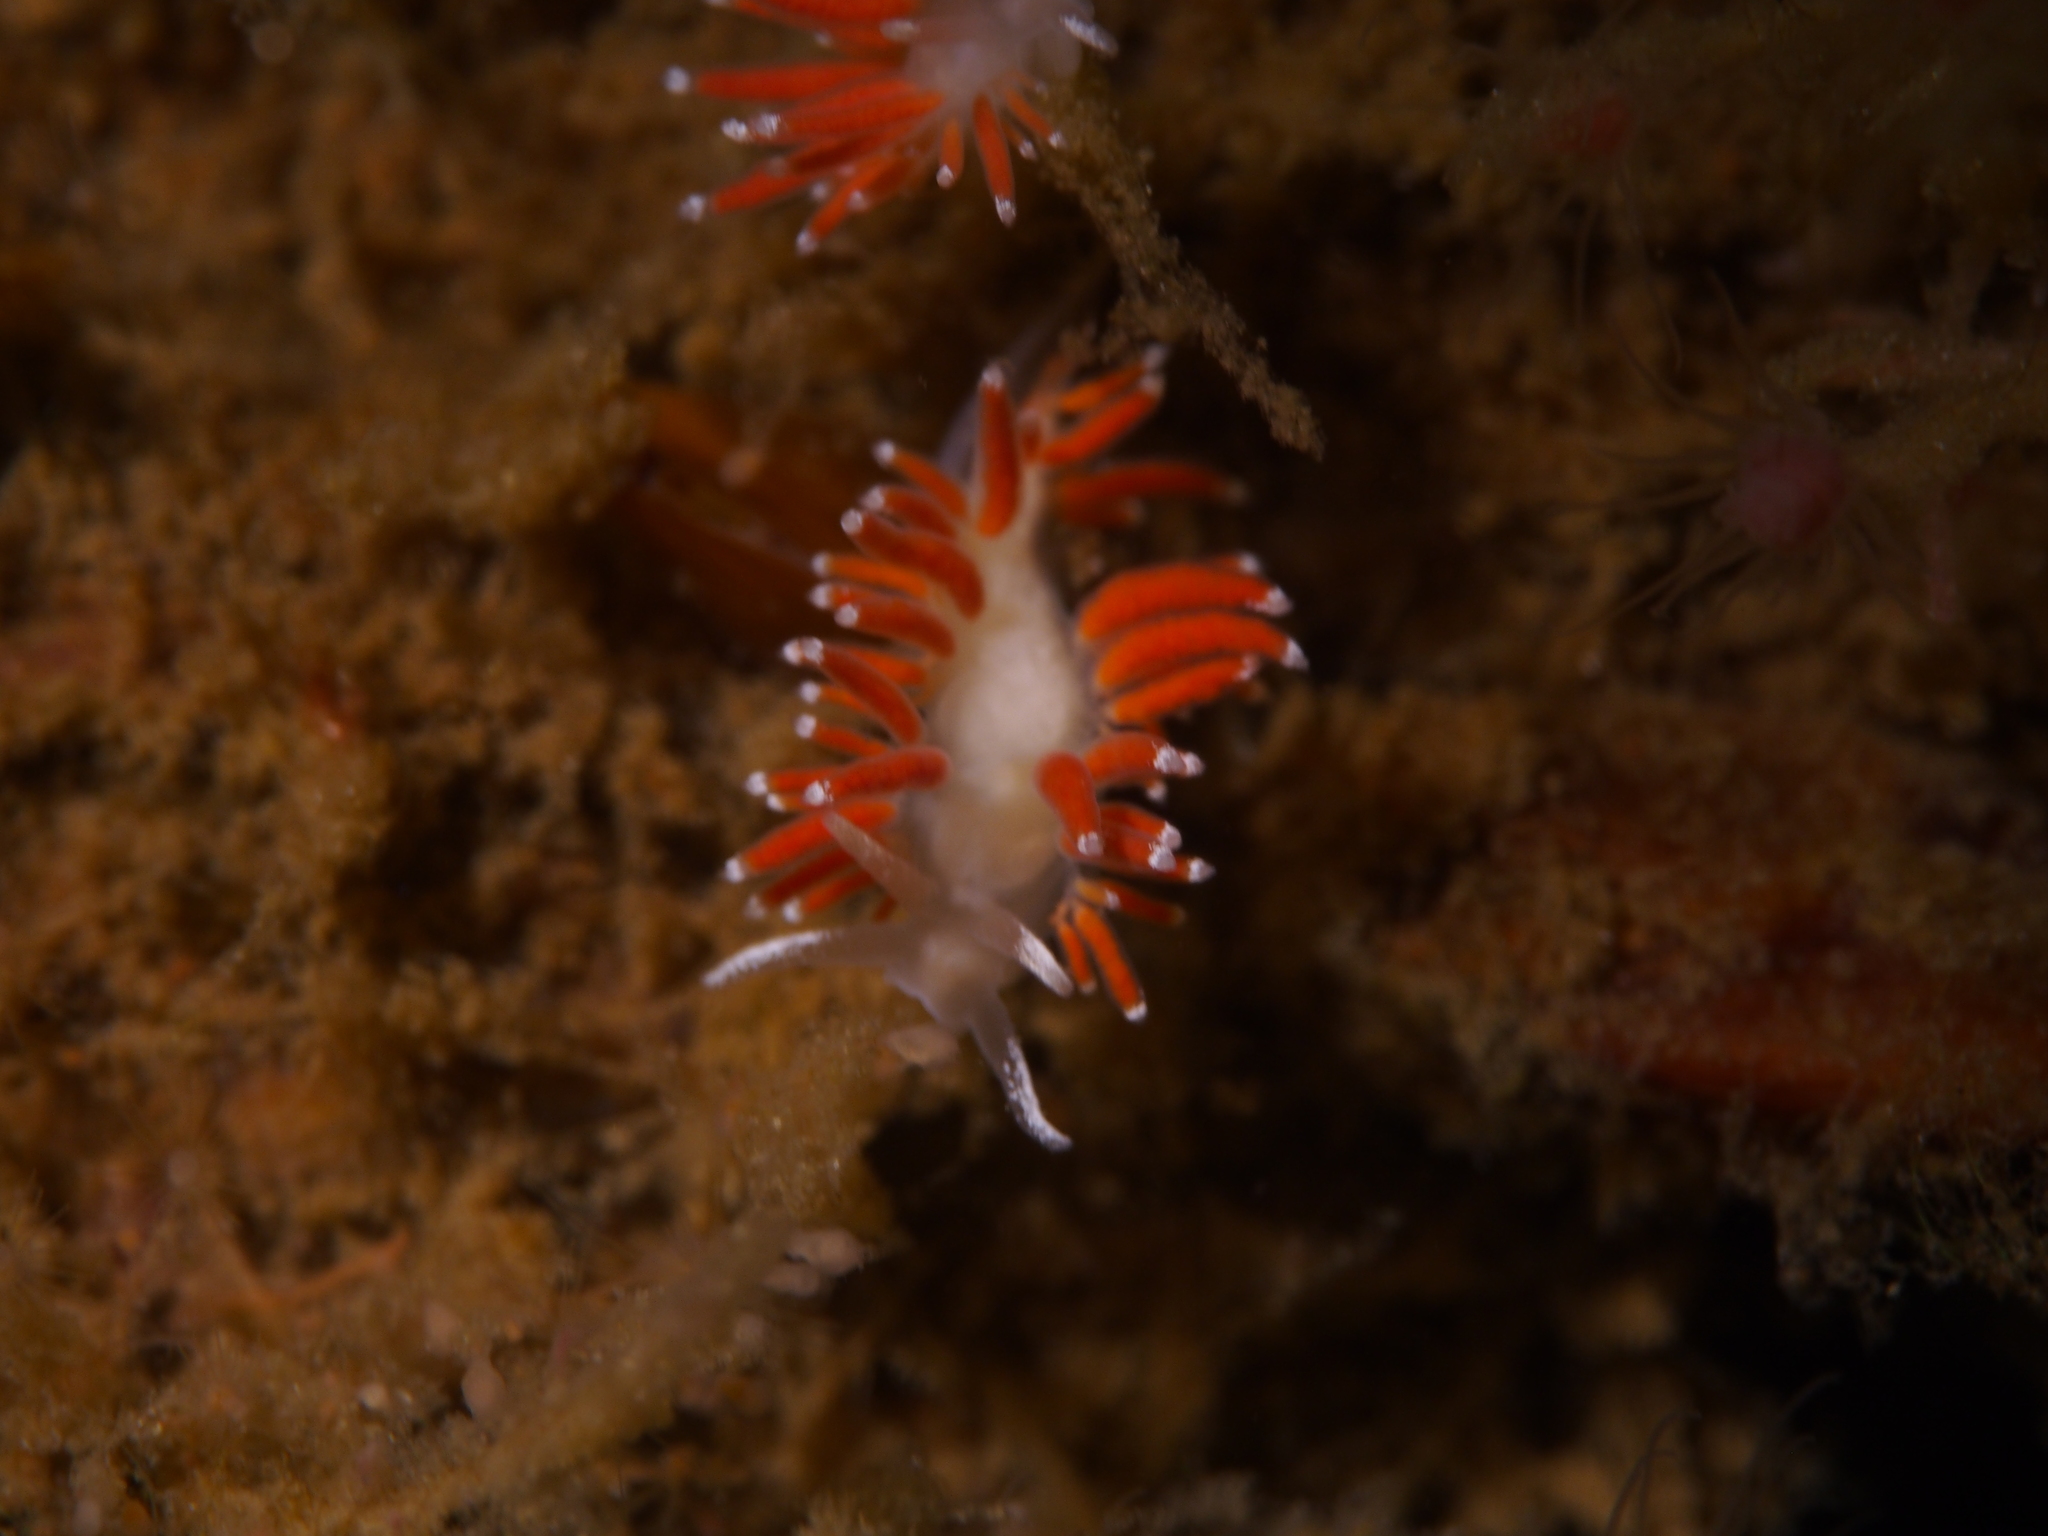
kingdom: Animalia
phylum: Mollusca
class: Gastropoda
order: Nudibranchia
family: Coryphellidae
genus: Coryphella
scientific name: Coryphella gracilis
